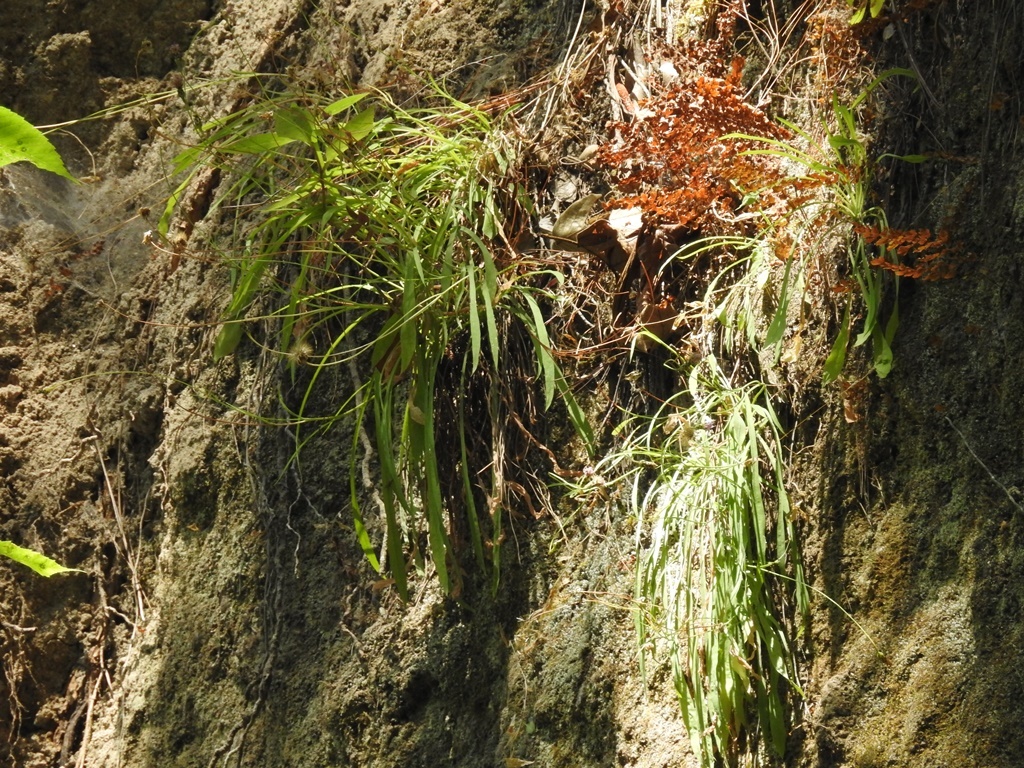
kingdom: Plantae
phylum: Tracheophyta
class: Magnoliopsida
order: Asterales
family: Asteraceae
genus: Pinaropappus
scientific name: Pinaropappus spathulatus
